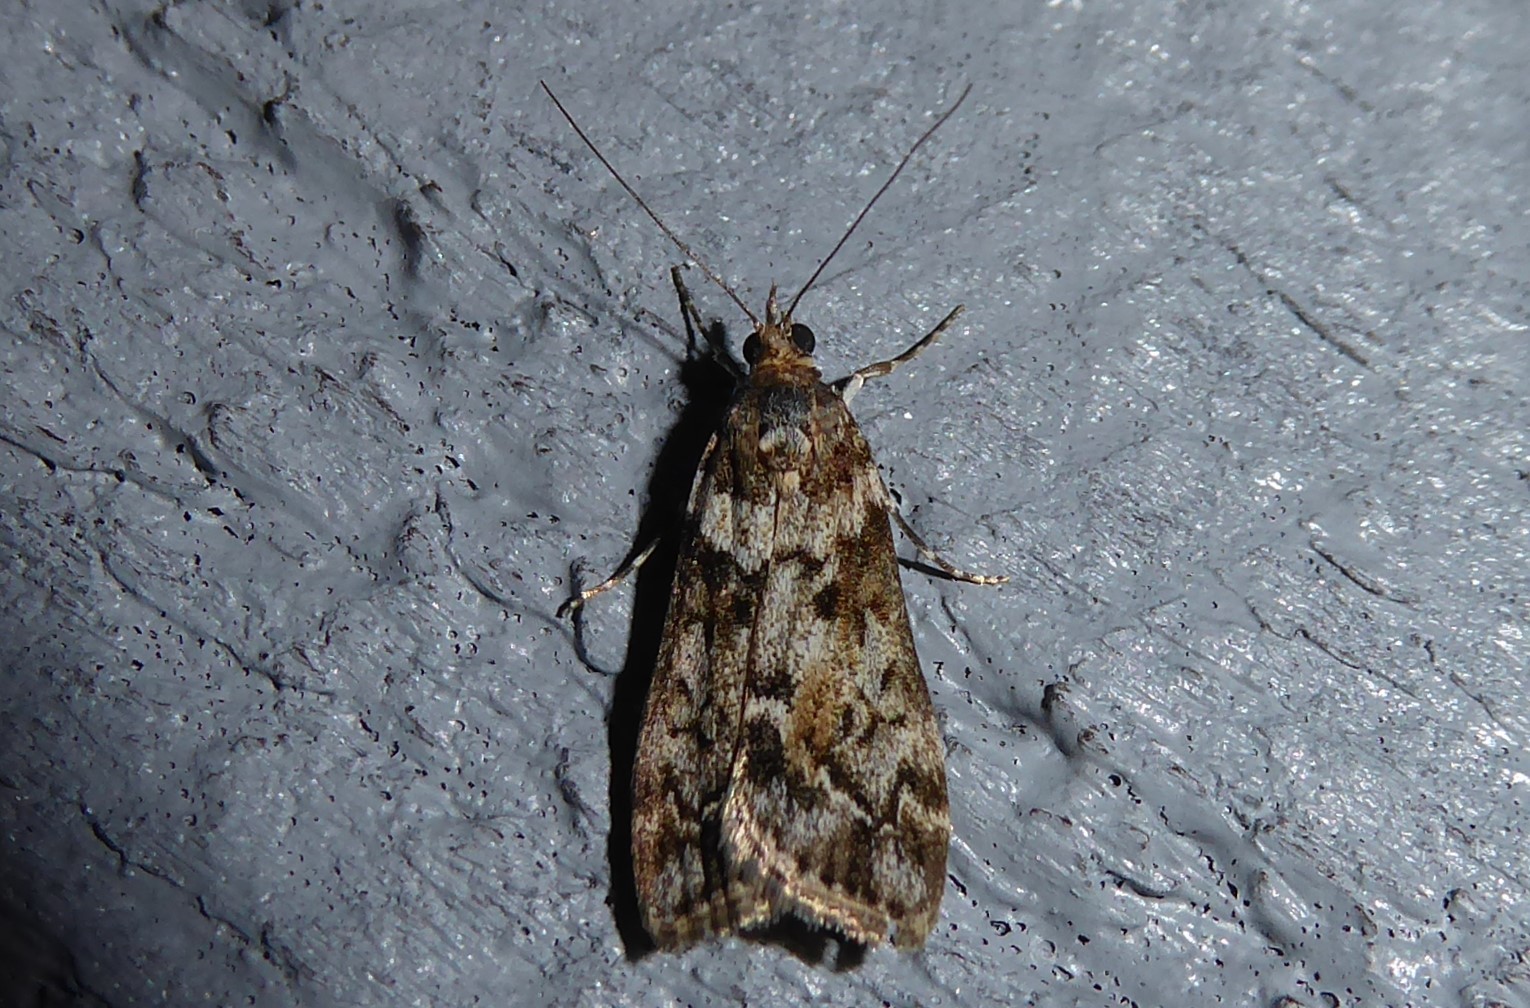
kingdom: Animalia
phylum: Arthropoda
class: Insecta
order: Lepidoptera
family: Crambidae
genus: Eudonia
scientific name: Eudonia submarginalis
